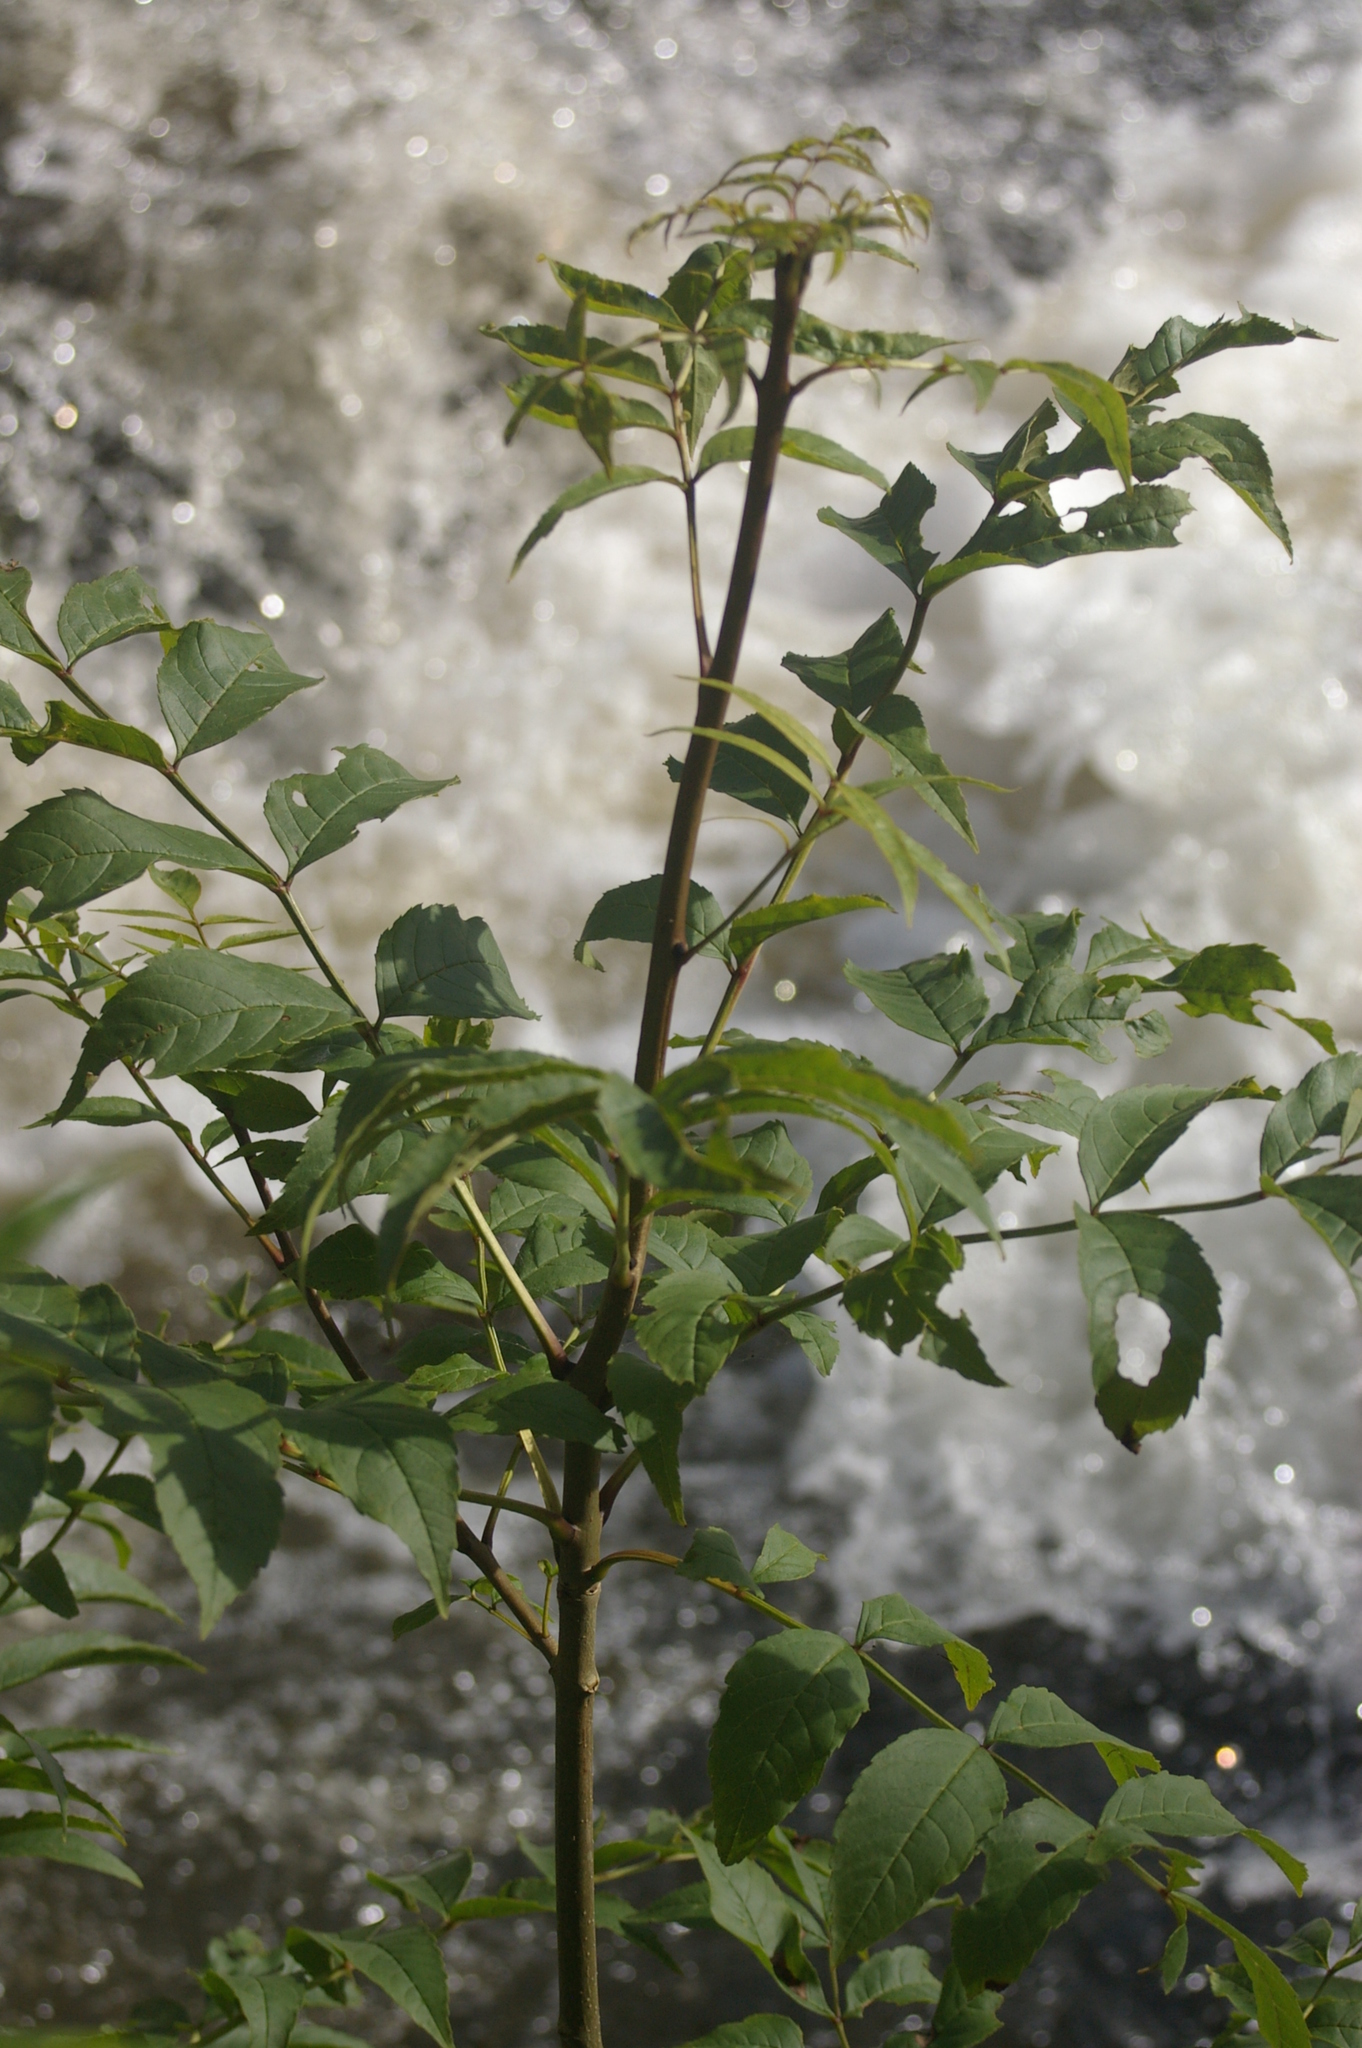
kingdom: Plantae
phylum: Tracheophyta
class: Magnoliopsida
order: Lamiales
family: Oleaceae
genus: Fraxinus
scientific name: Fraxinus excelsior
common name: European ash
